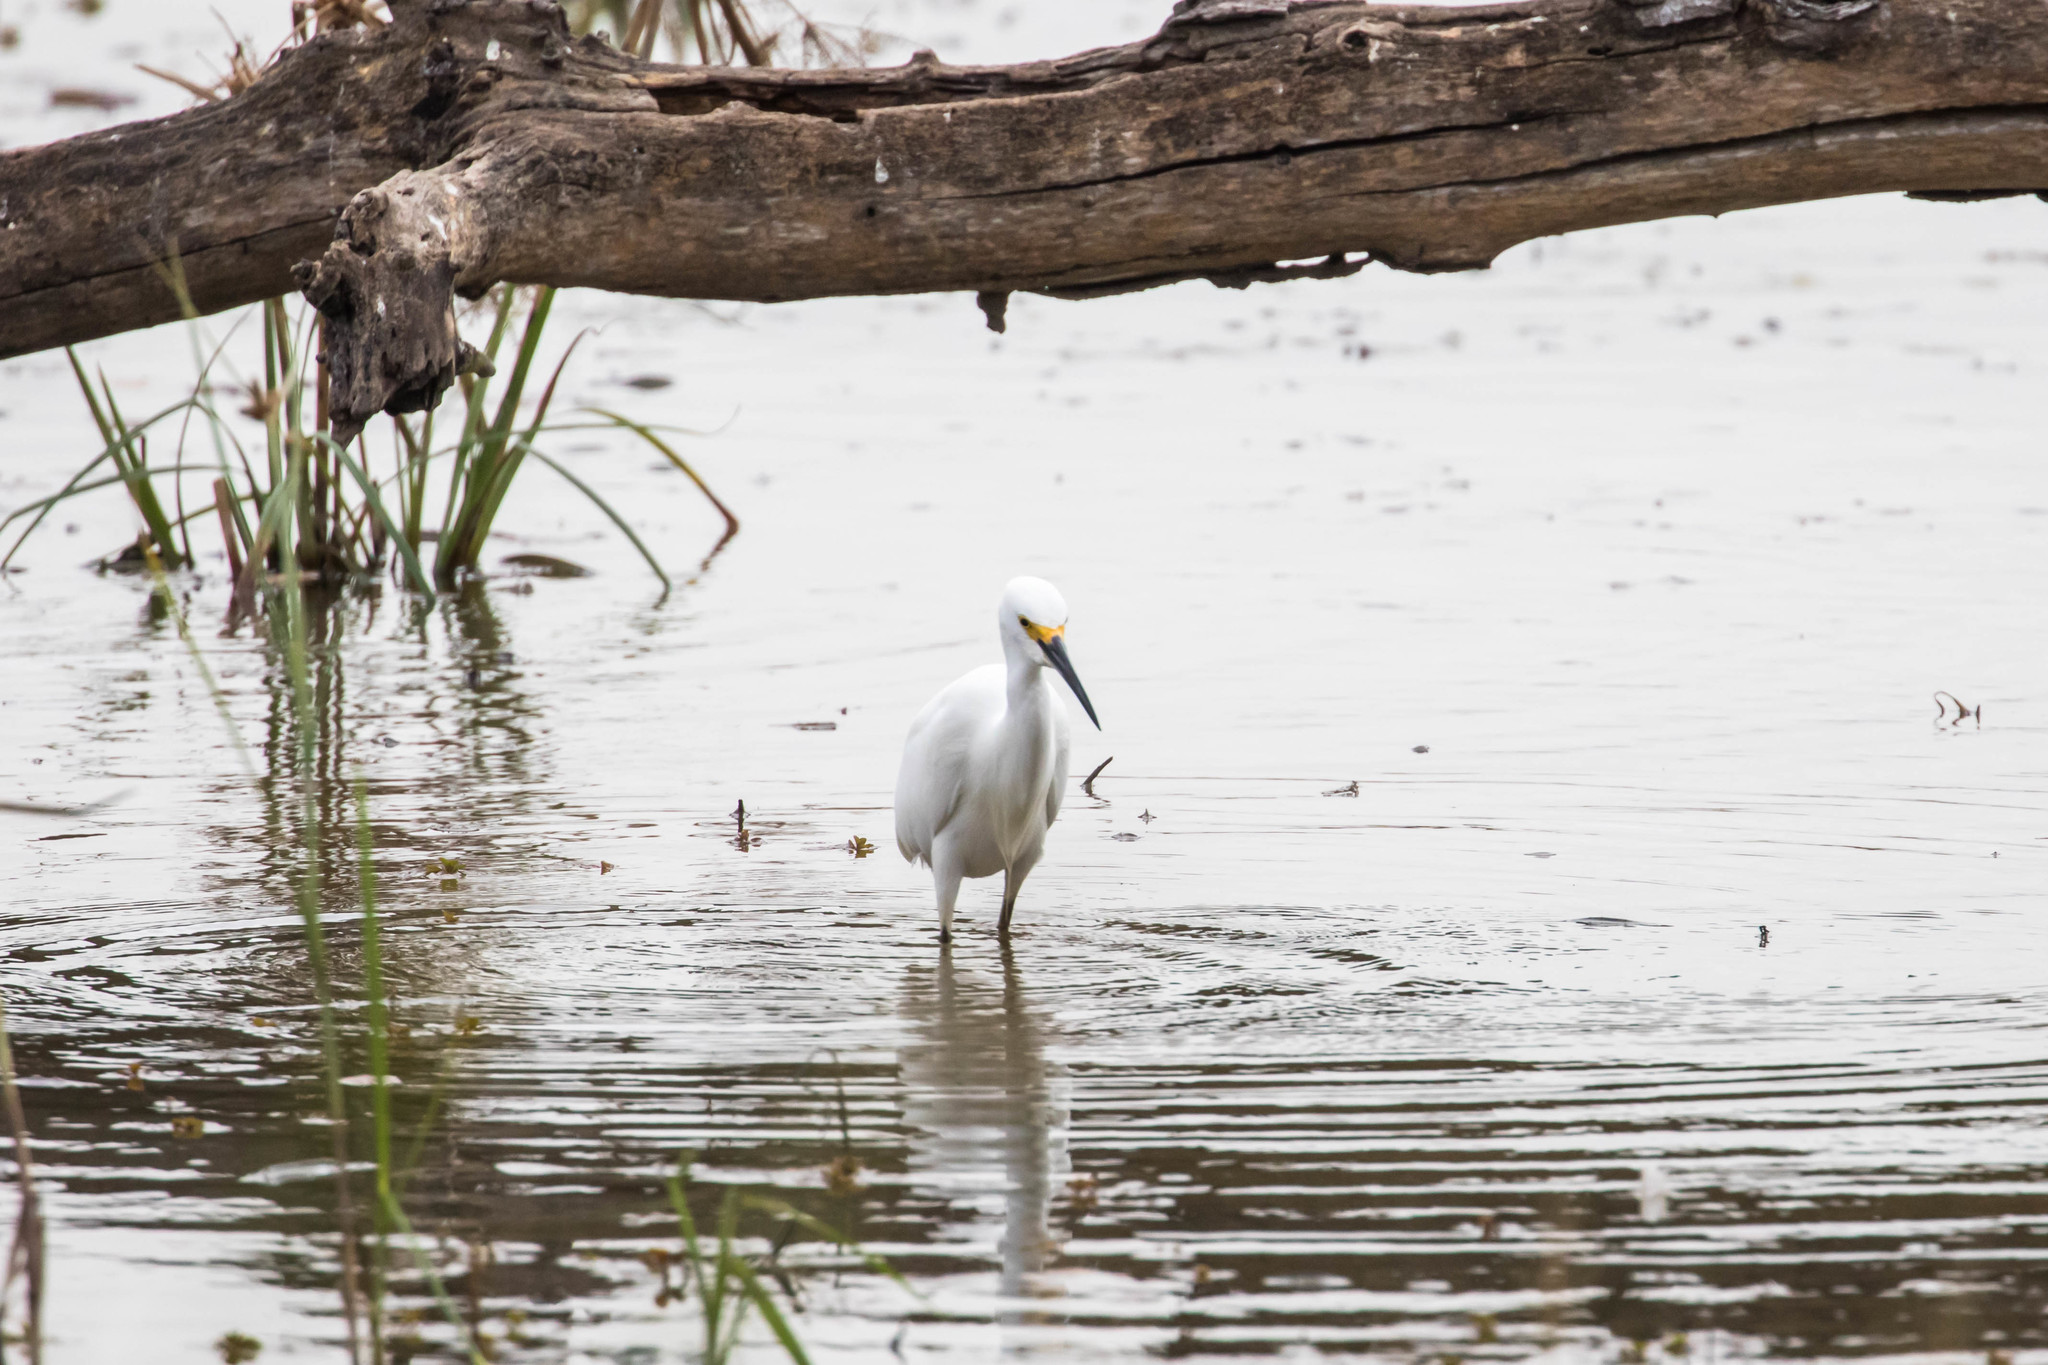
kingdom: Animalia
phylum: Chordata
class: Aves
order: Pelecaniformes
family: Ardeidae
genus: Egretta
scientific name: Egretta thula
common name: Snowy egret
